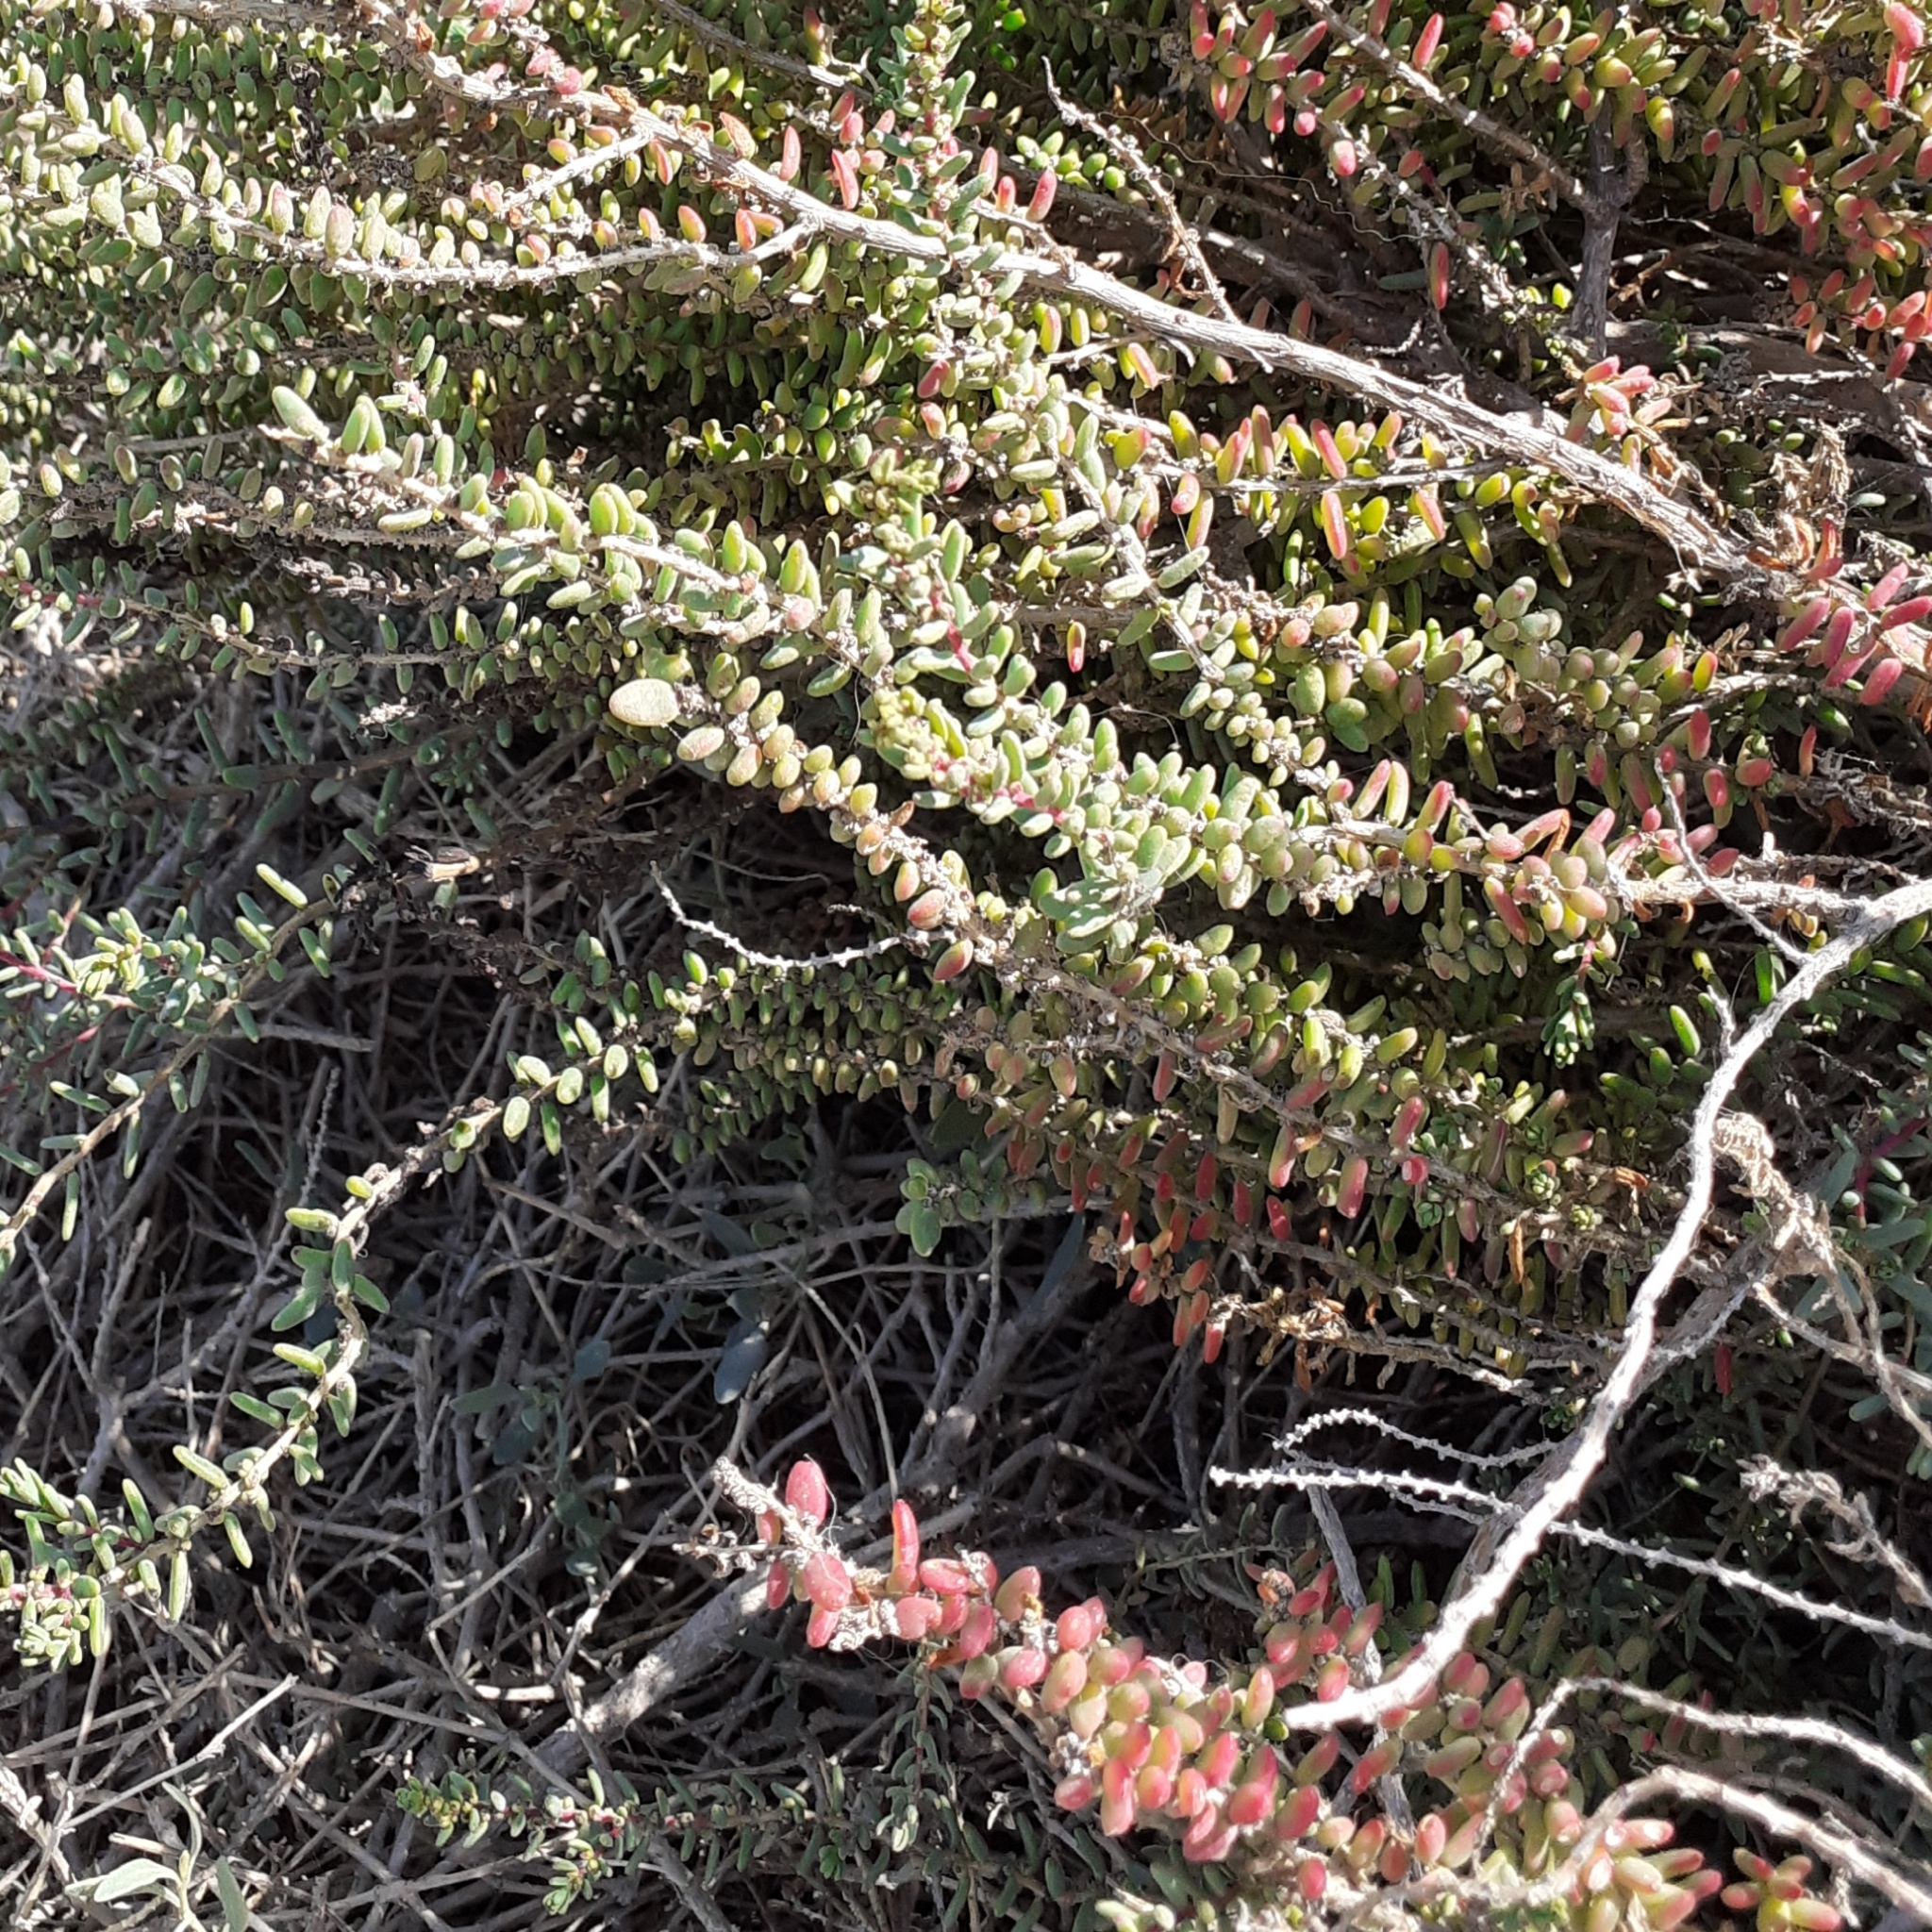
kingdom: Plantae
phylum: Tracheophyta
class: Magnoliopsida
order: Caryophyllales
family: Amaranthaceae
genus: Suaeda
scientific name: Suaeda vera
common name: Shrubby sea-blite
